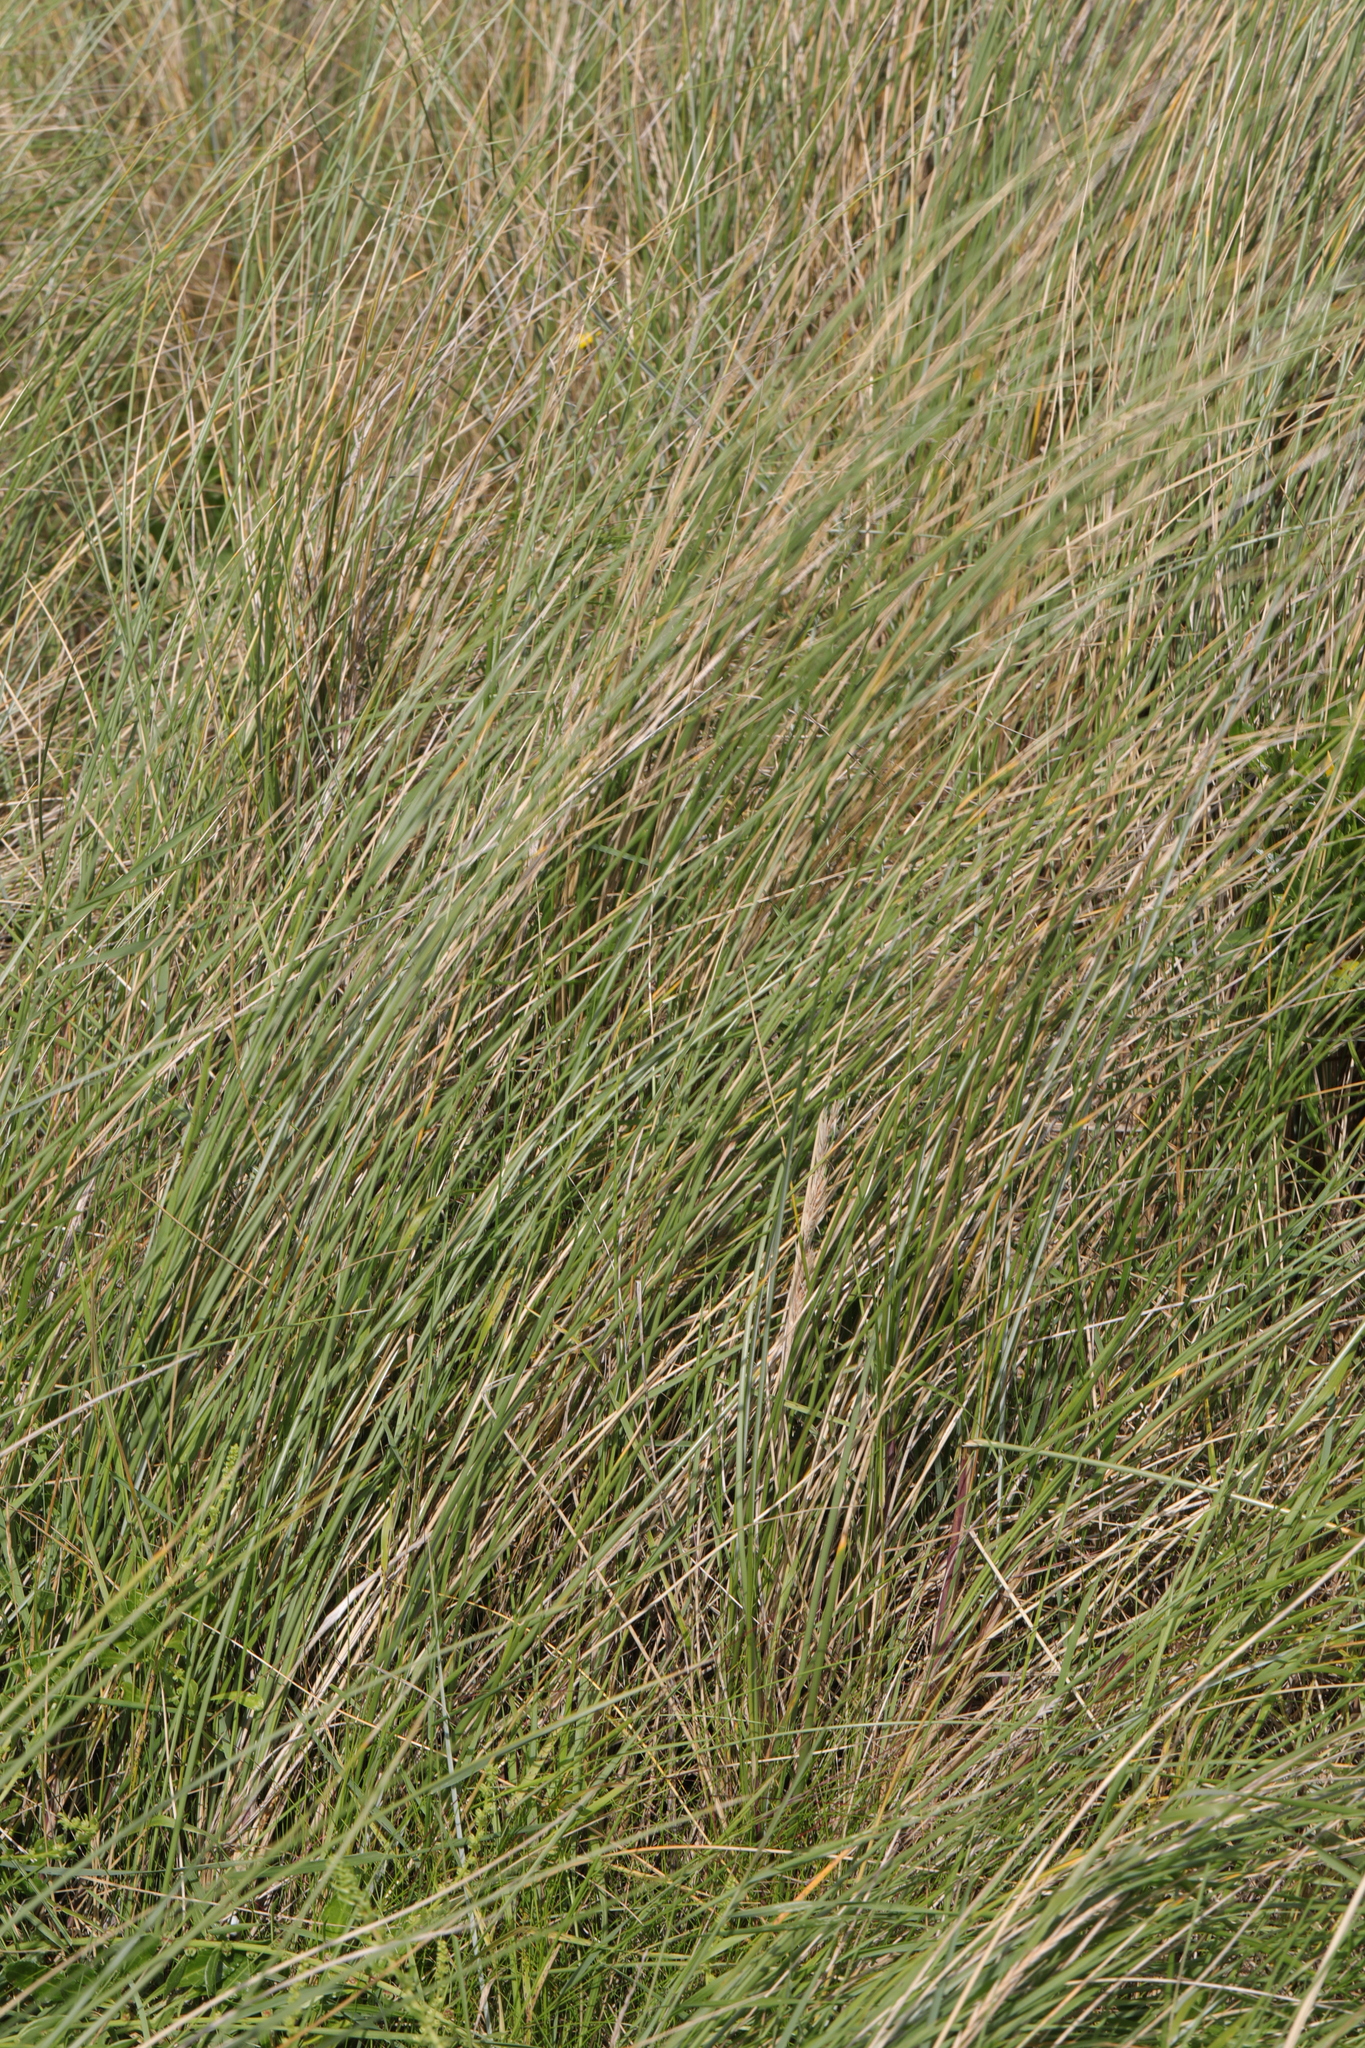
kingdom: Plantae
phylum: Tracheophyta
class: Liliopsida
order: Poales
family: Poaceae
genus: Calamagrostis
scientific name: Calamagrostis arenaria
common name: European beachgrass
